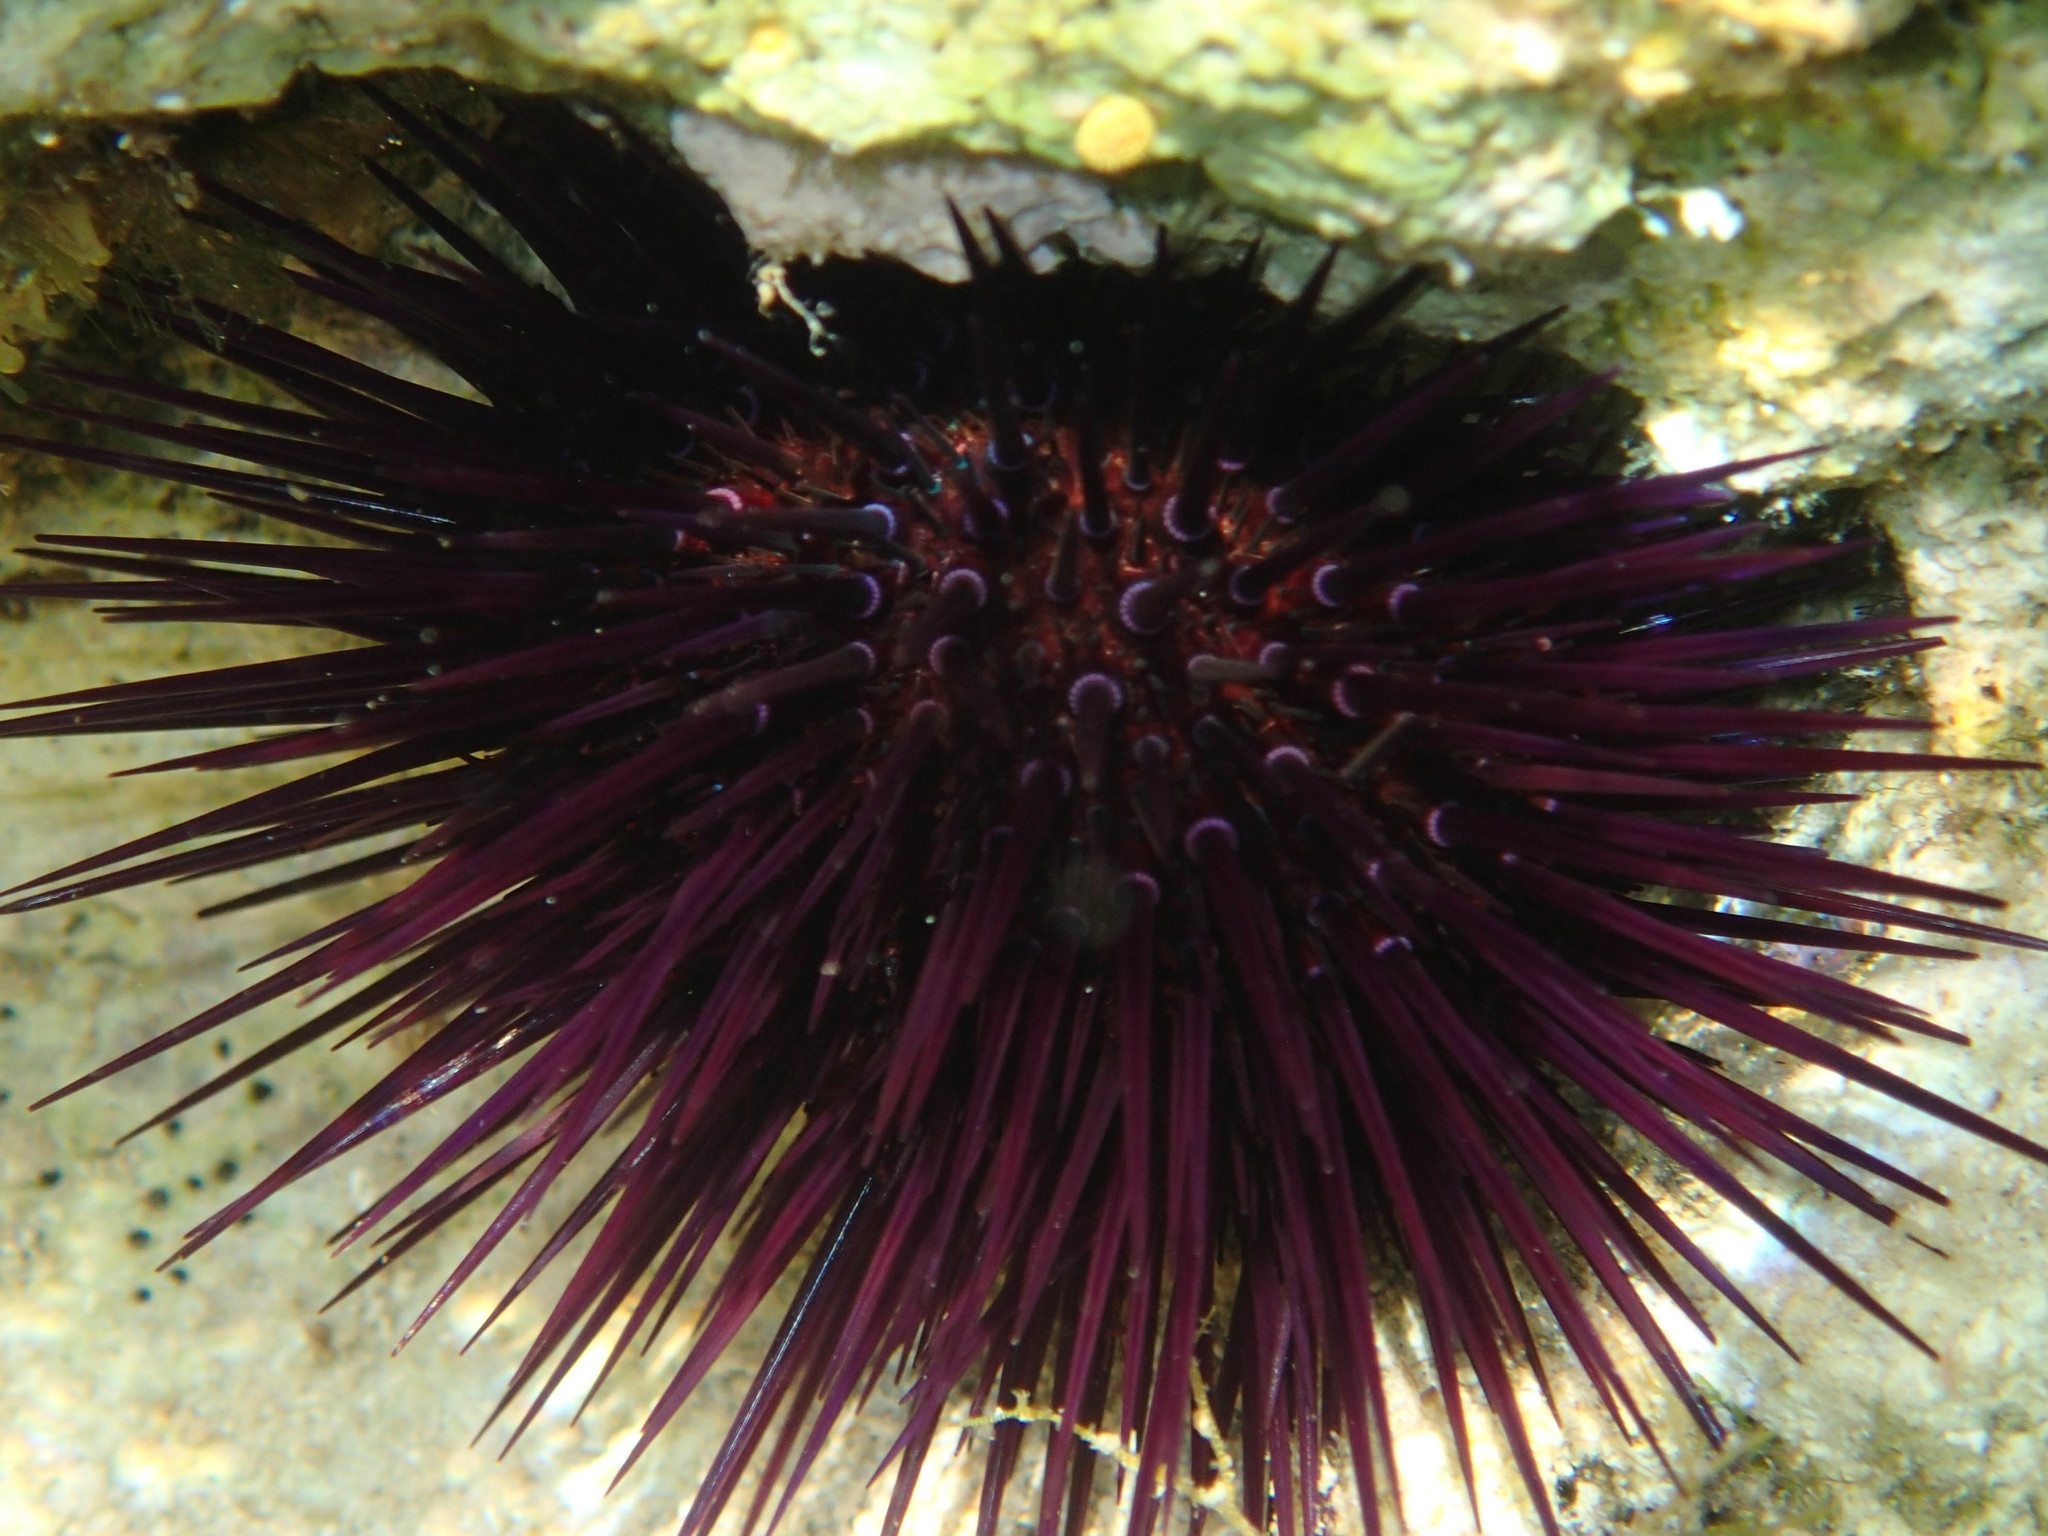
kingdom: Animalia
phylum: Echinodermata
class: Echinoidea
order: Camarodonta
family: Parechinidae
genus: Paracentrotus
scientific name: Paracentrotus lividus
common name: Purple sea urchin
